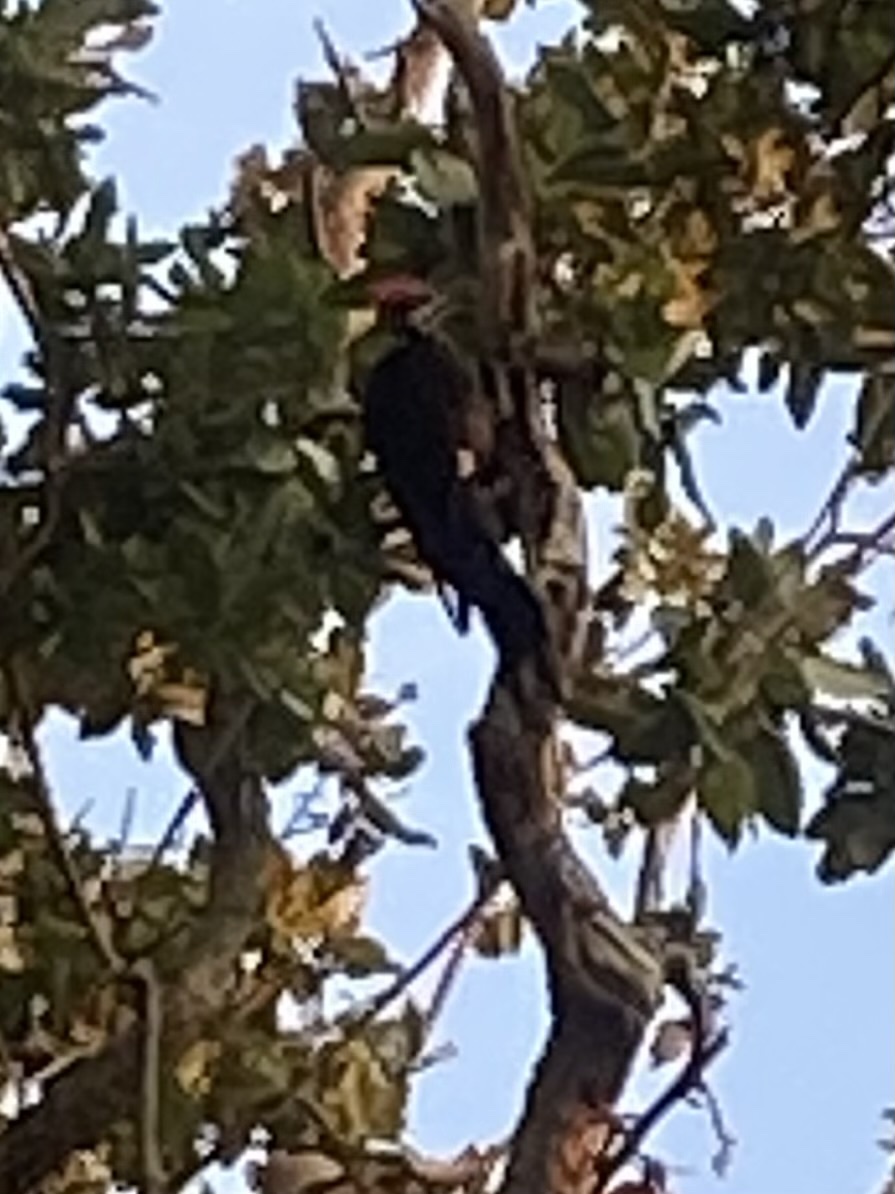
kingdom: Animalia
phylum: Chordata
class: Aves
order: Piciformes
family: Picidae
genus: Dryocopus
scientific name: Dryocopus pileatus
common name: Pileated woodpecker
